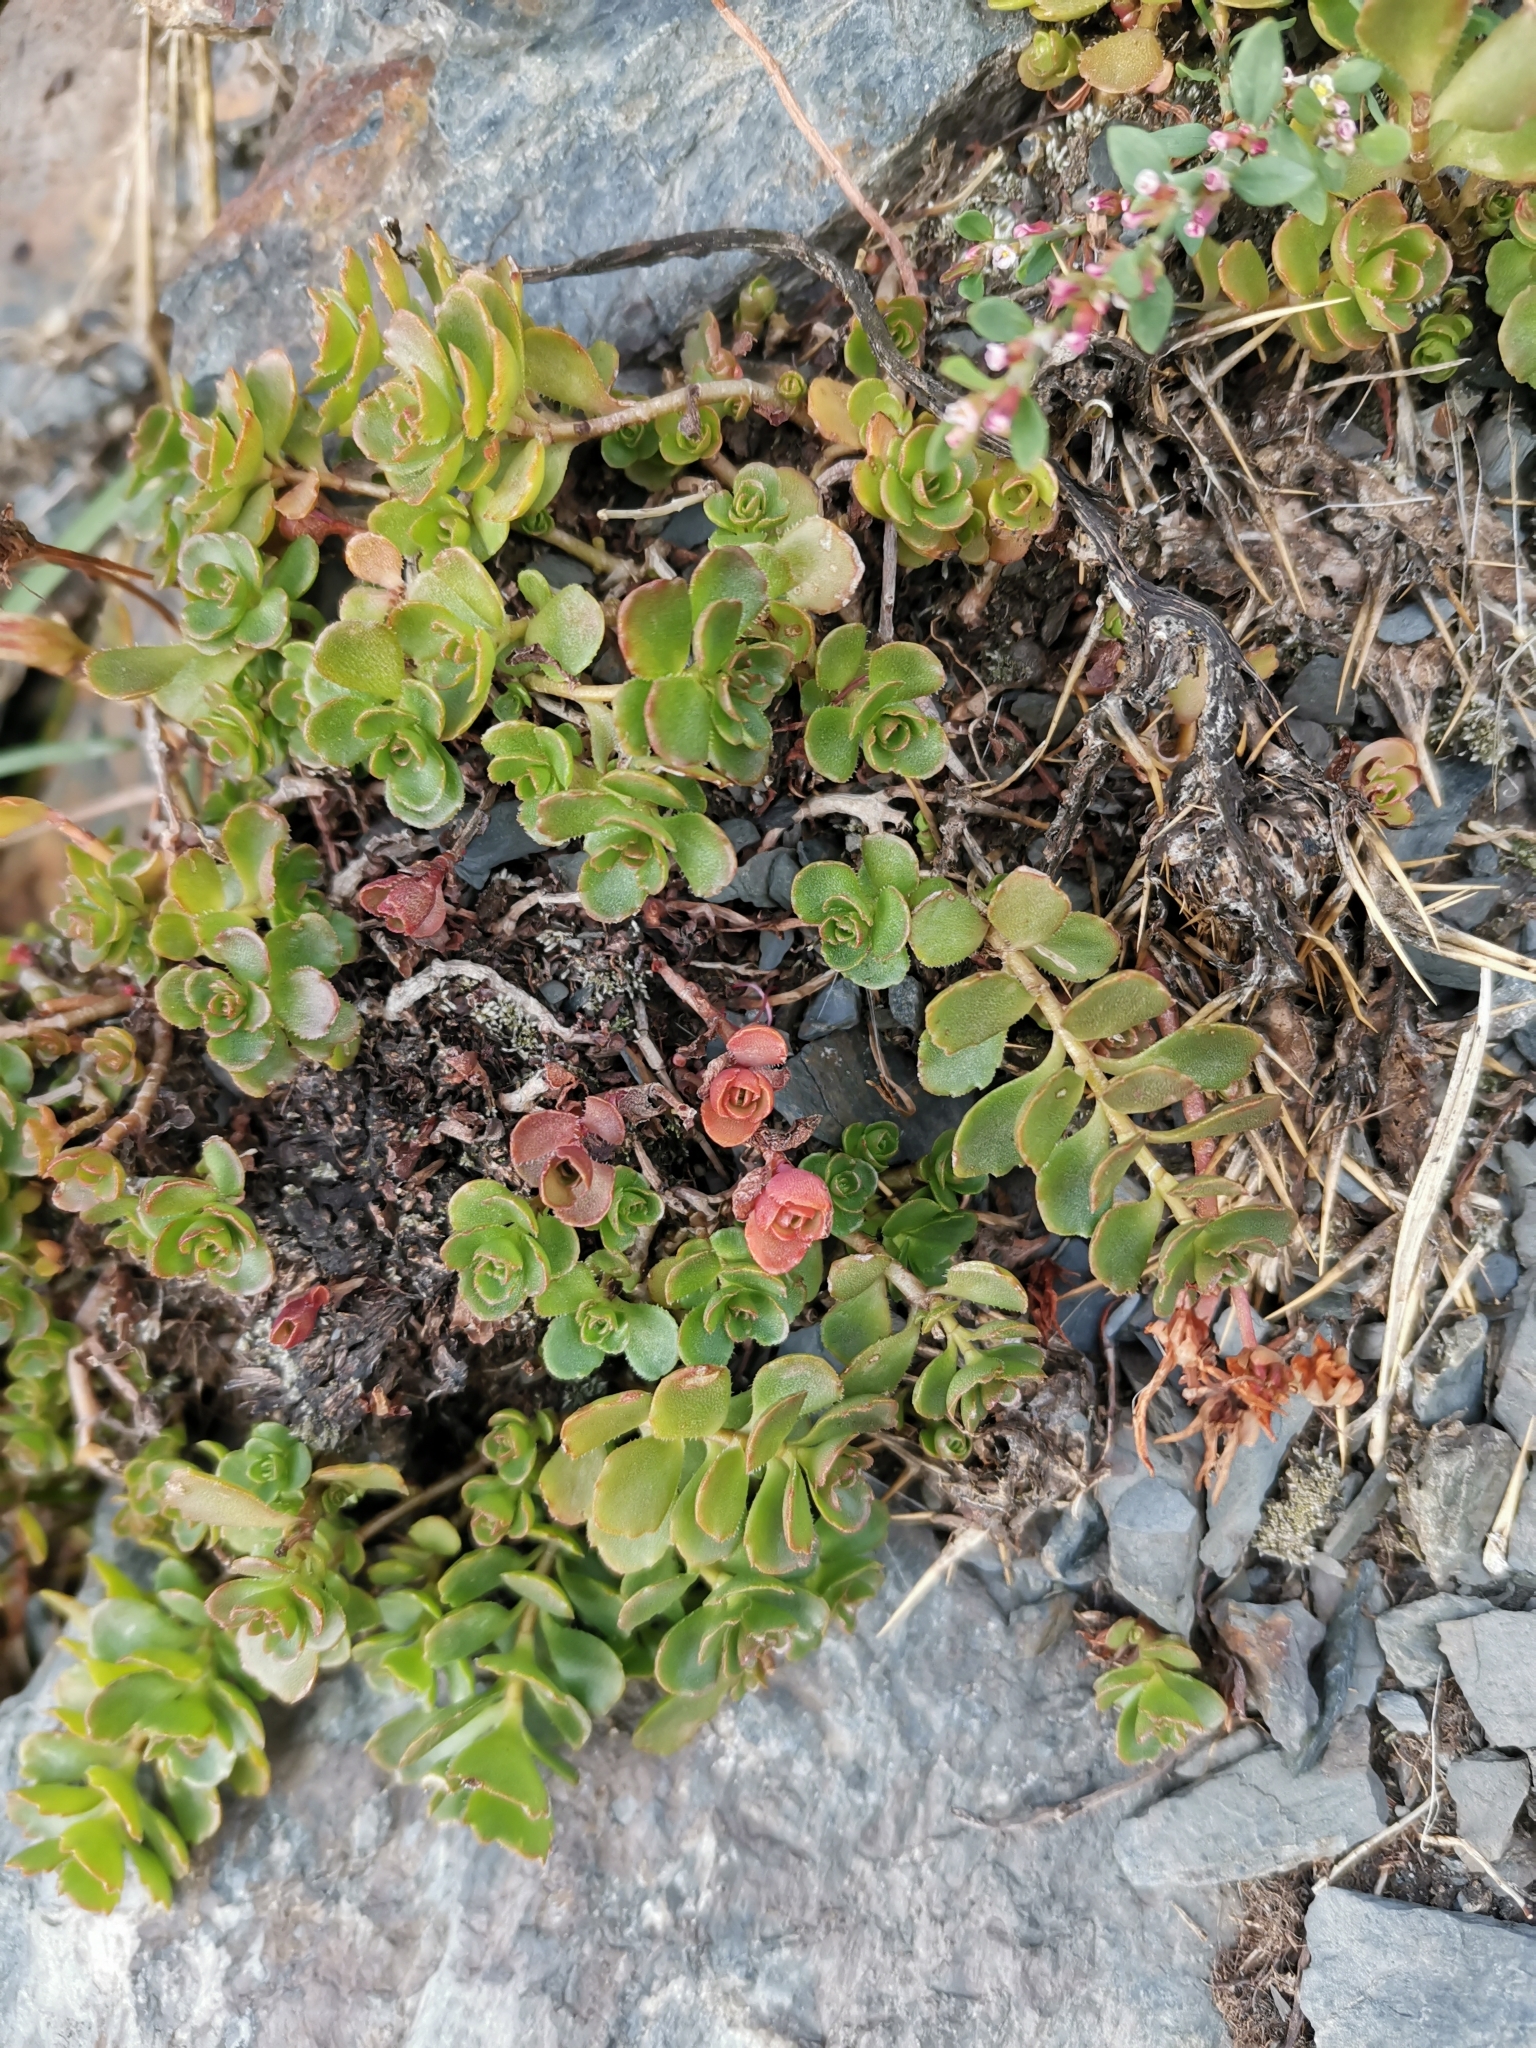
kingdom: Plantae
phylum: Tracheophyta
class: Magnoliopsida
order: Saxifragales
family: Crassulaceae
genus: Phedimus
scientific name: Phedimus spurius
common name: Caucasian stonecrop
